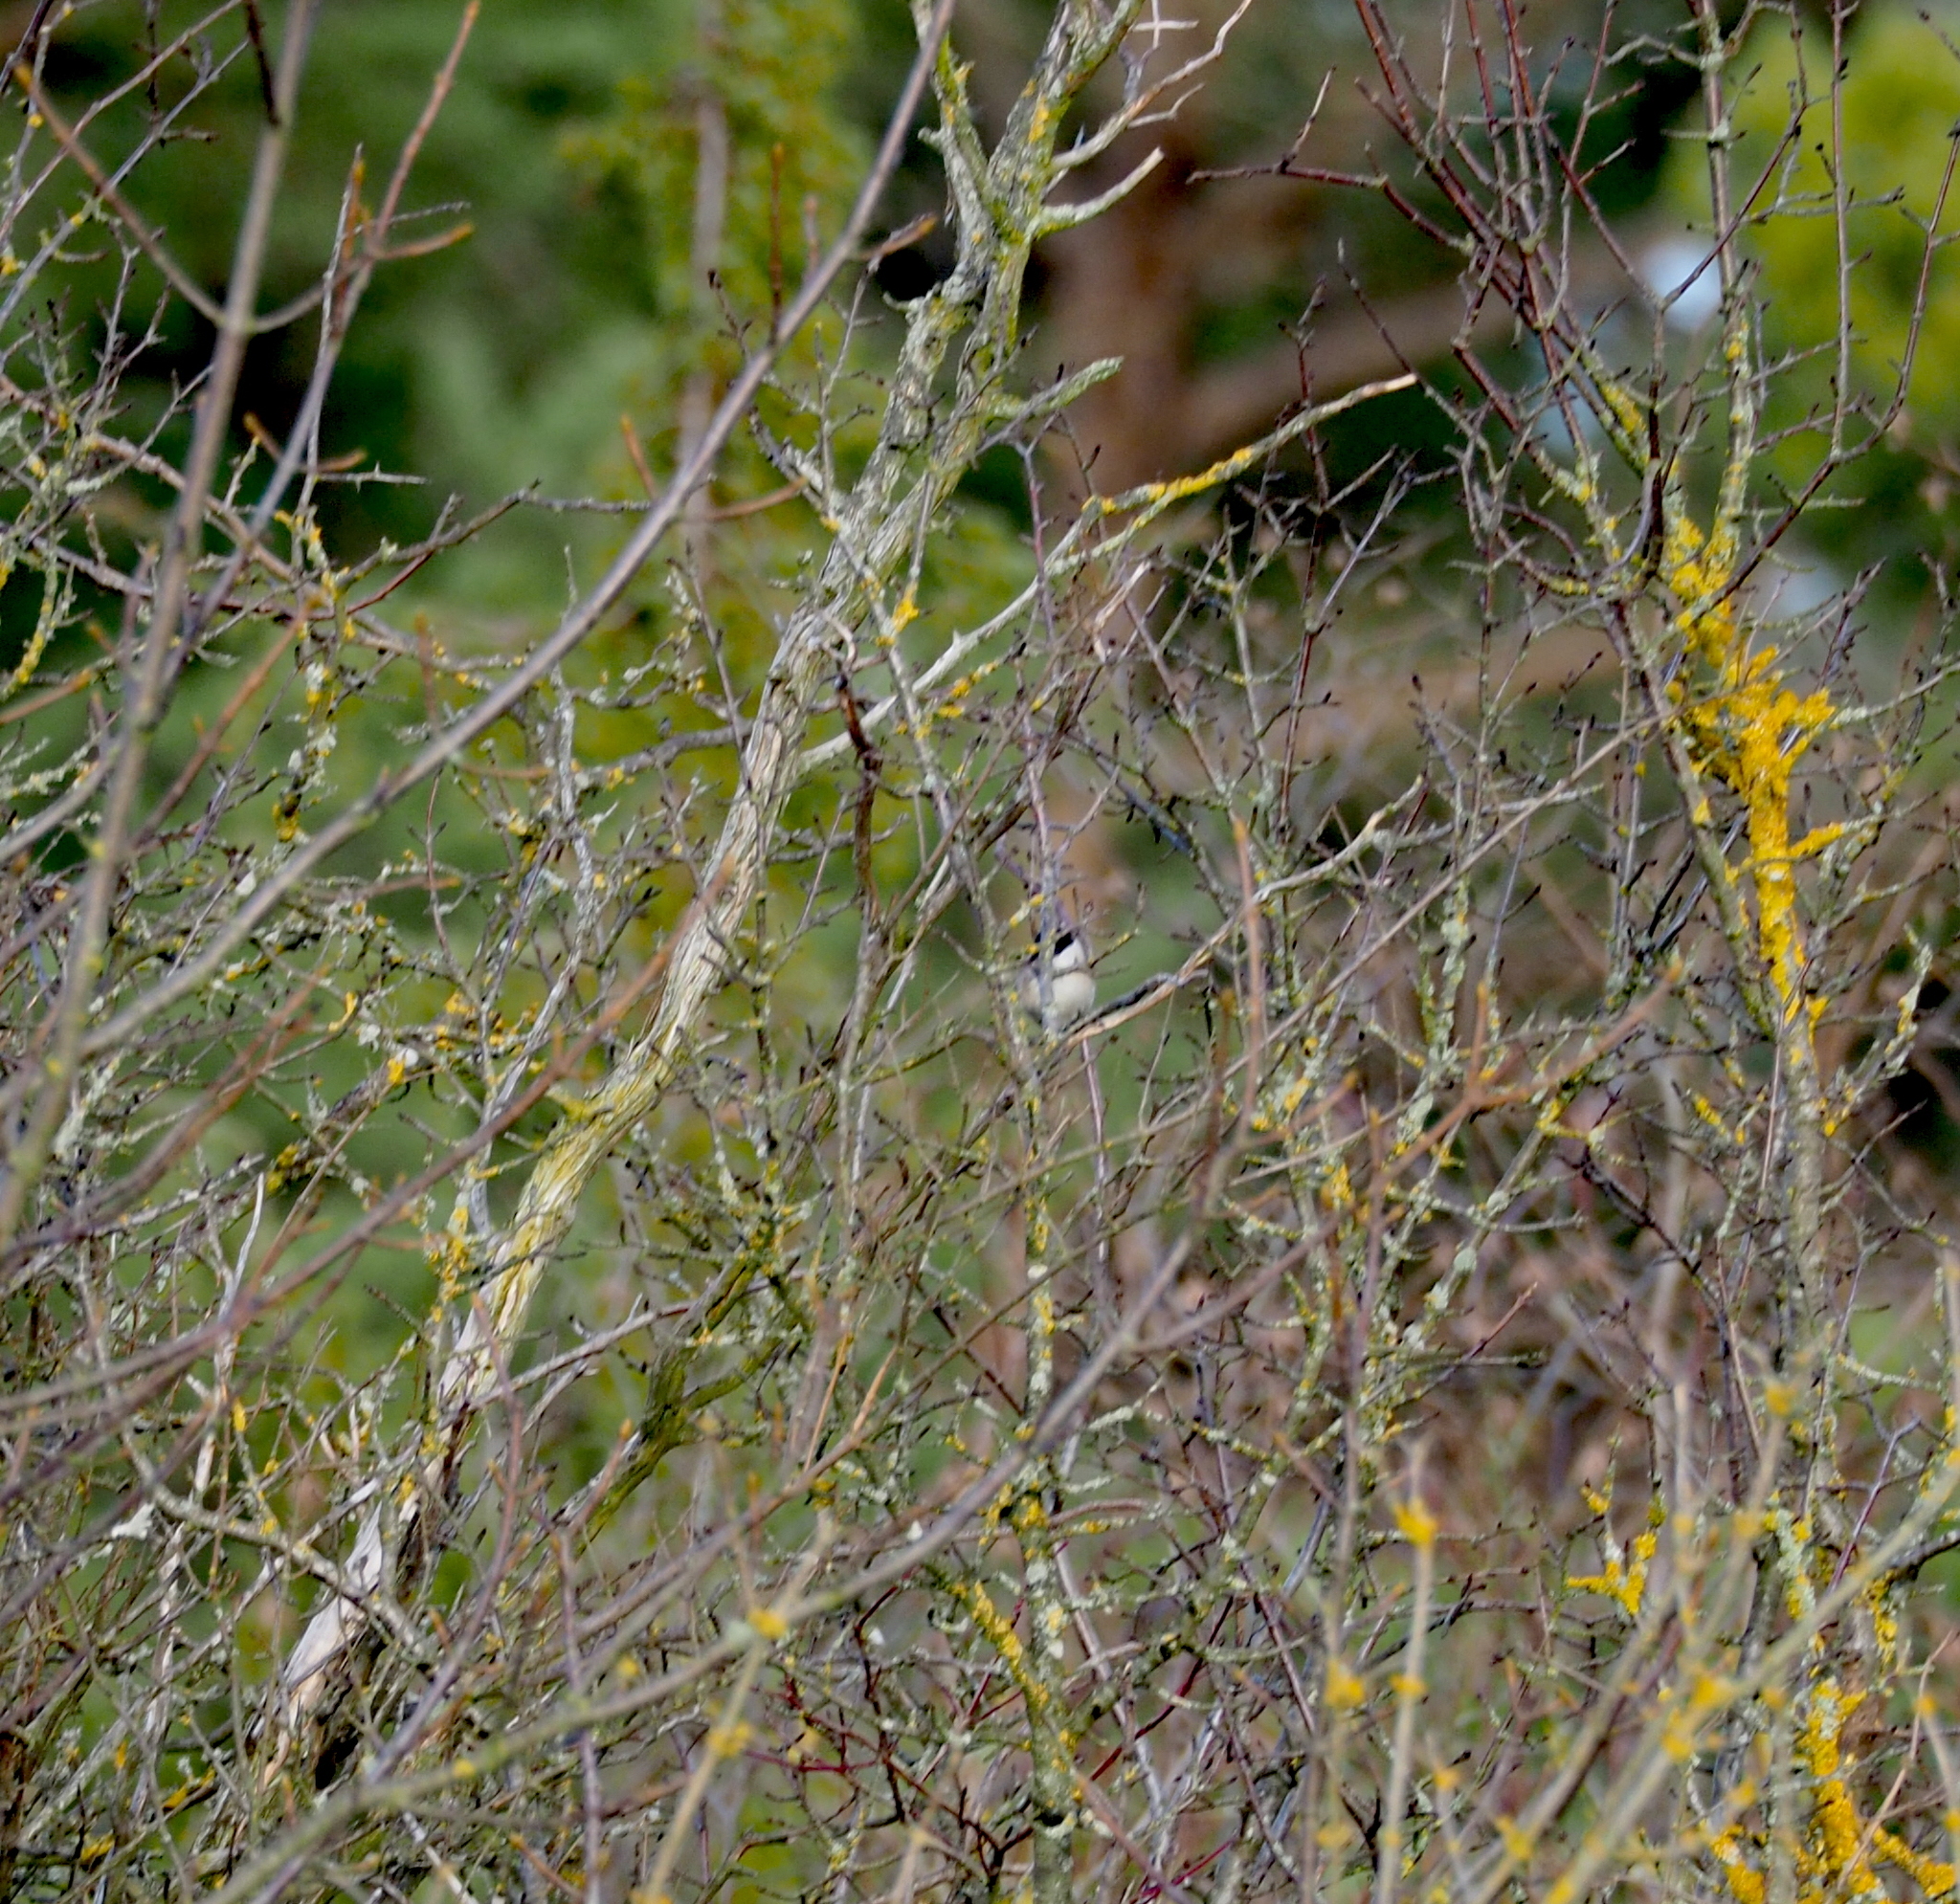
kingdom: Animalia
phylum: Chordata
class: Aves
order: Passeriformes
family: Paridae
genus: Poecile
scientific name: Poecile palustris
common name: Marsh tit
